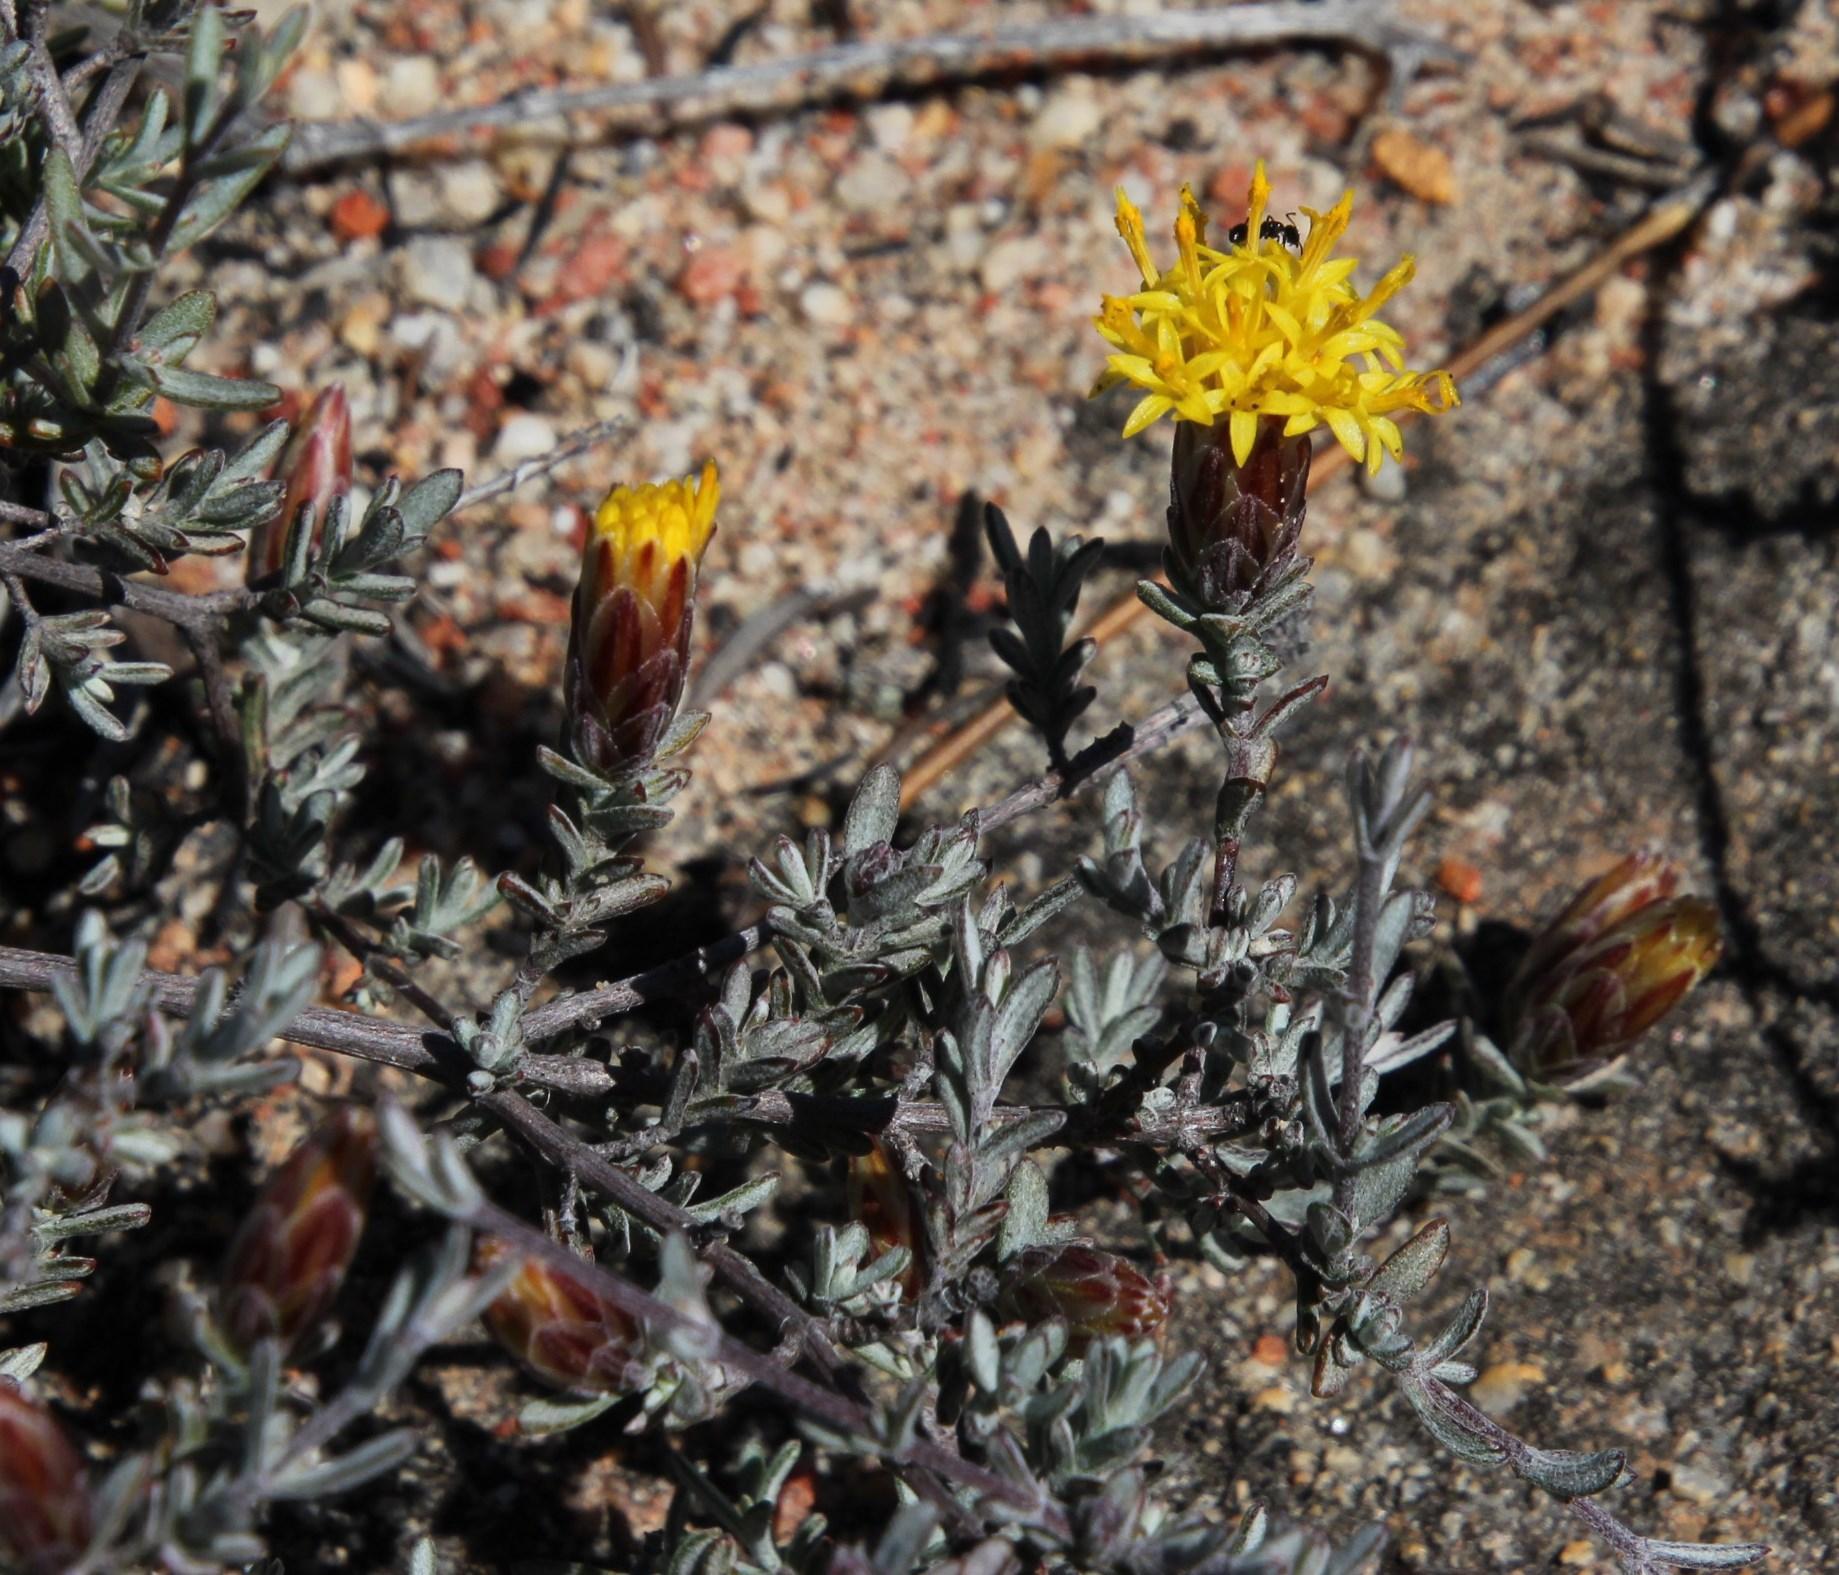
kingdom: Plantae
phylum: Tracheophyta
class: Magnoliopsida
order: Asterales
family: Asteraceae
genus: Pteronia
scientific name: Pteronia cinerea
